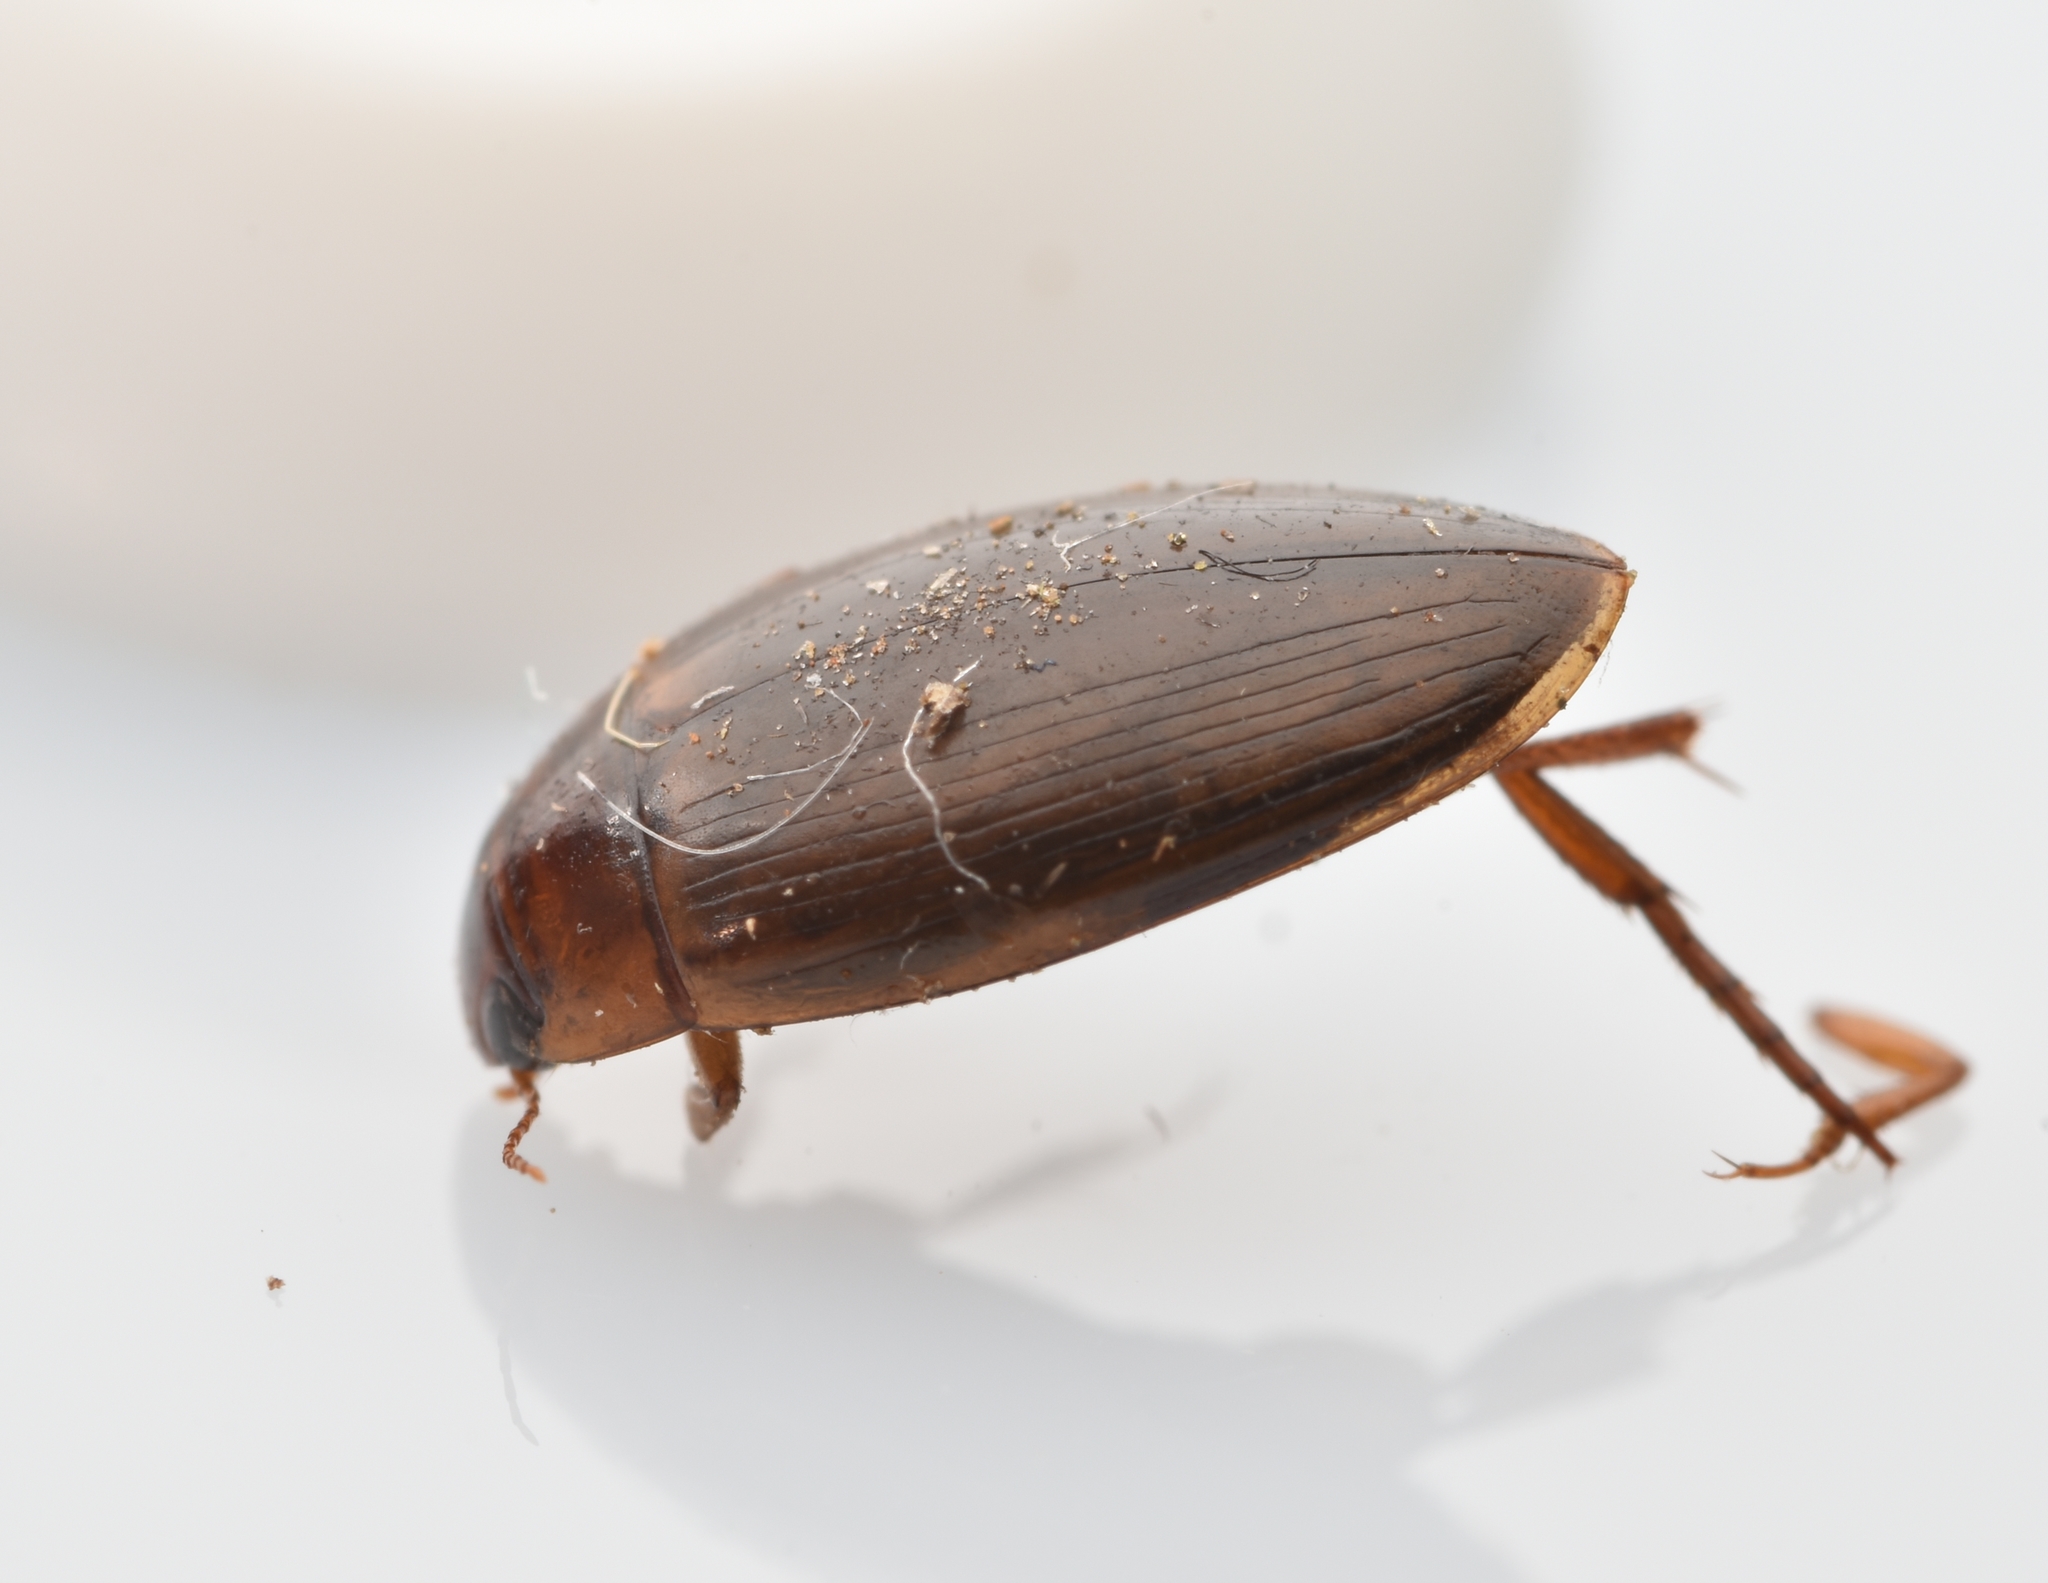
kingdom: Animalia
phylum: Arthropoda
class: Insecta
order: Coleoptera
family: Dytiscidae
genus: Copelatus
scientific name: Copelatus chevrolati
